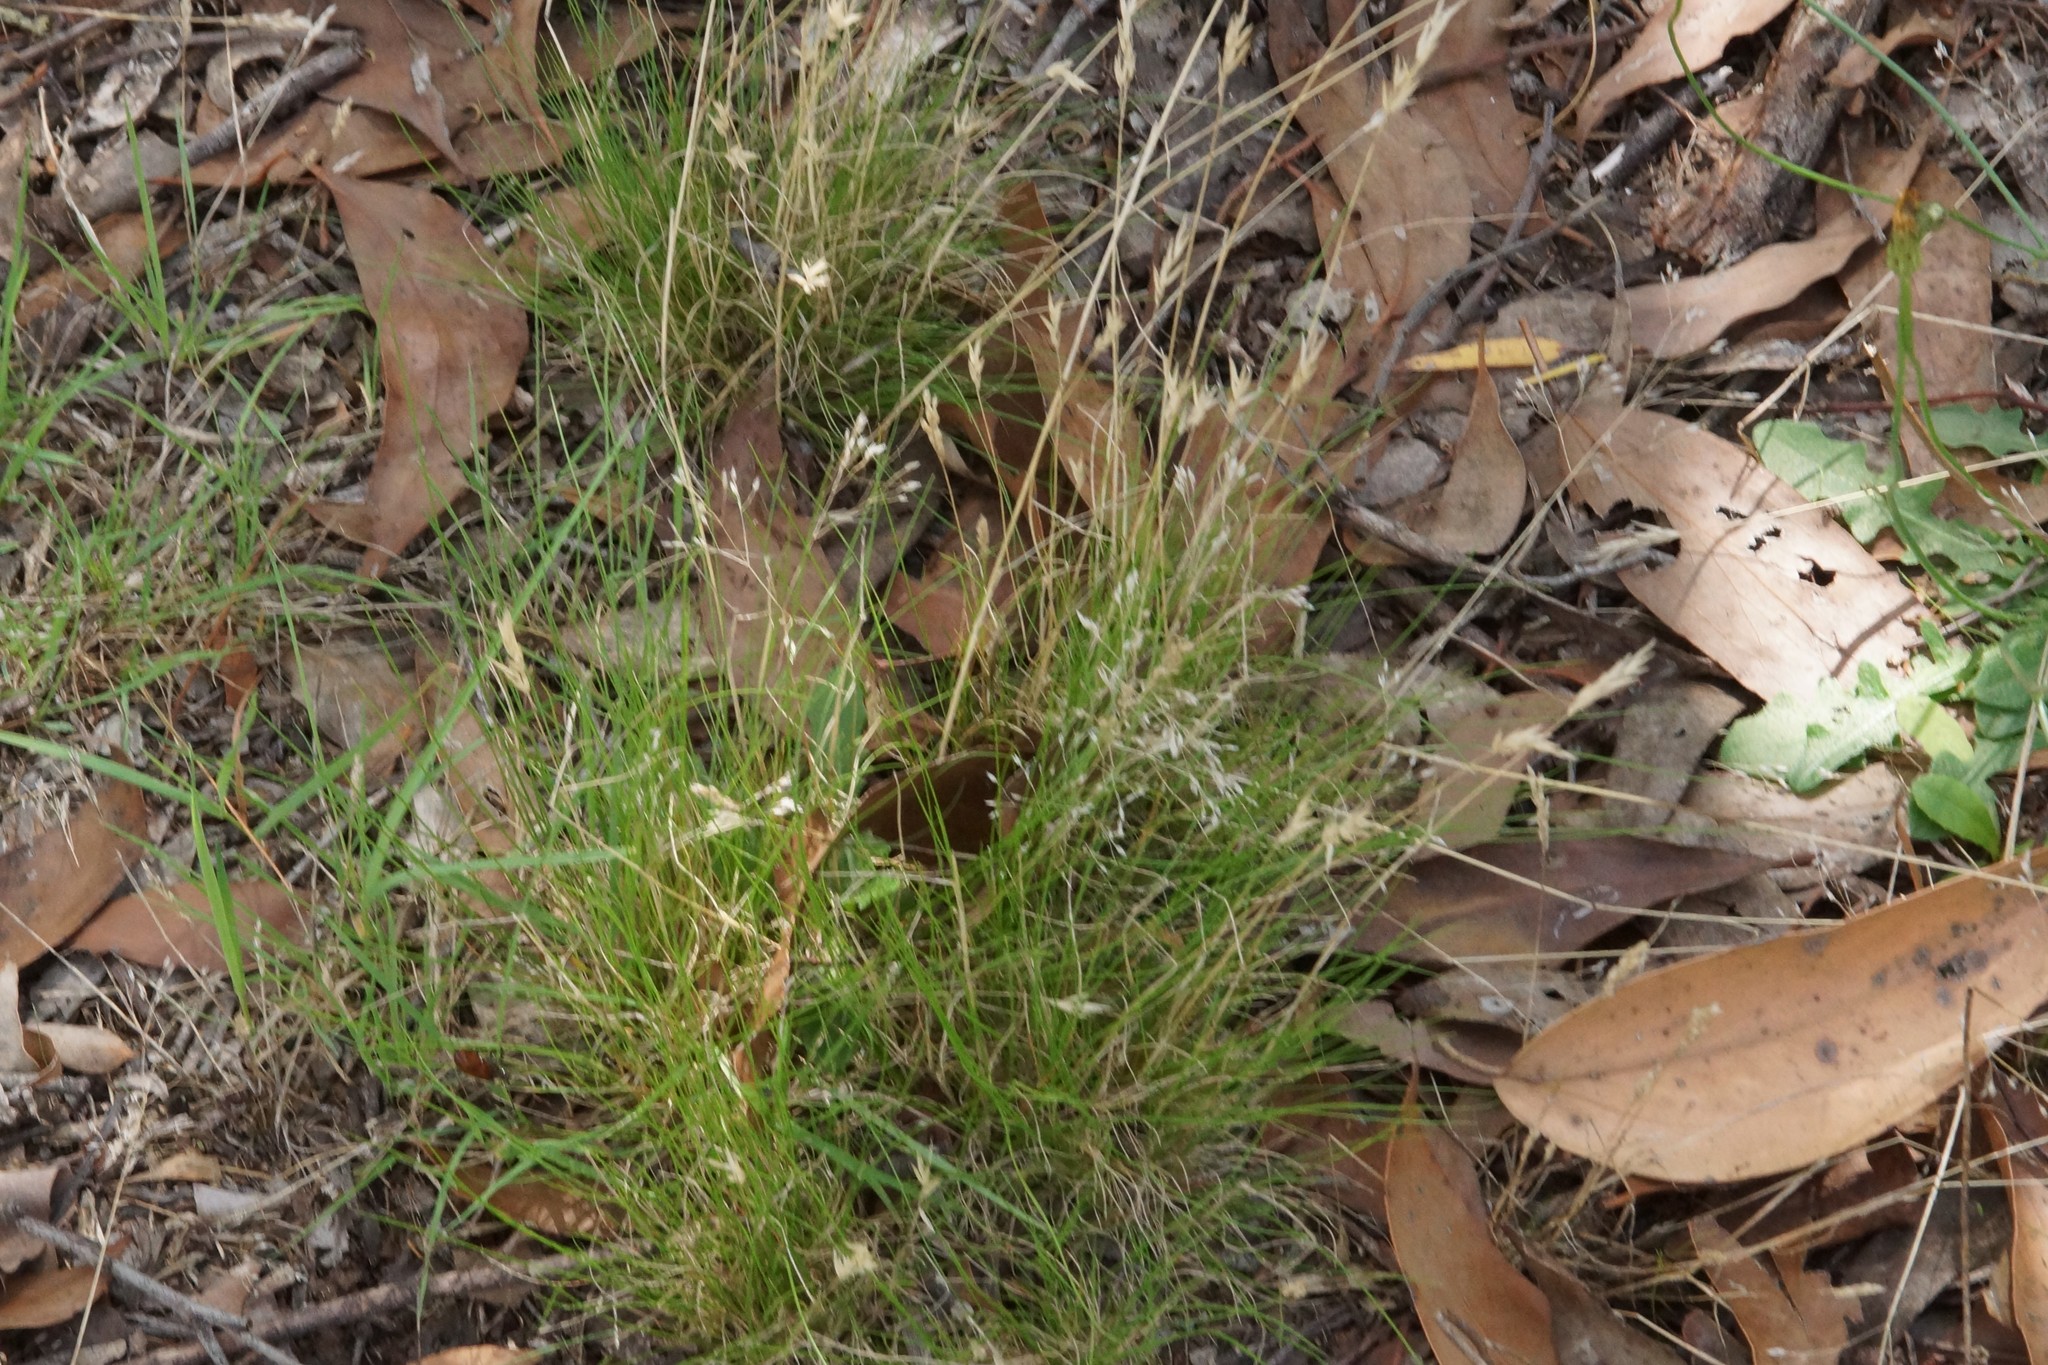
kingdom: Plantae
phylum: Tracheophyta
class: Liliopsida
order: Poales
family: Poaceae
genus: Rytidosperma
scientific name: Rytidosperma
